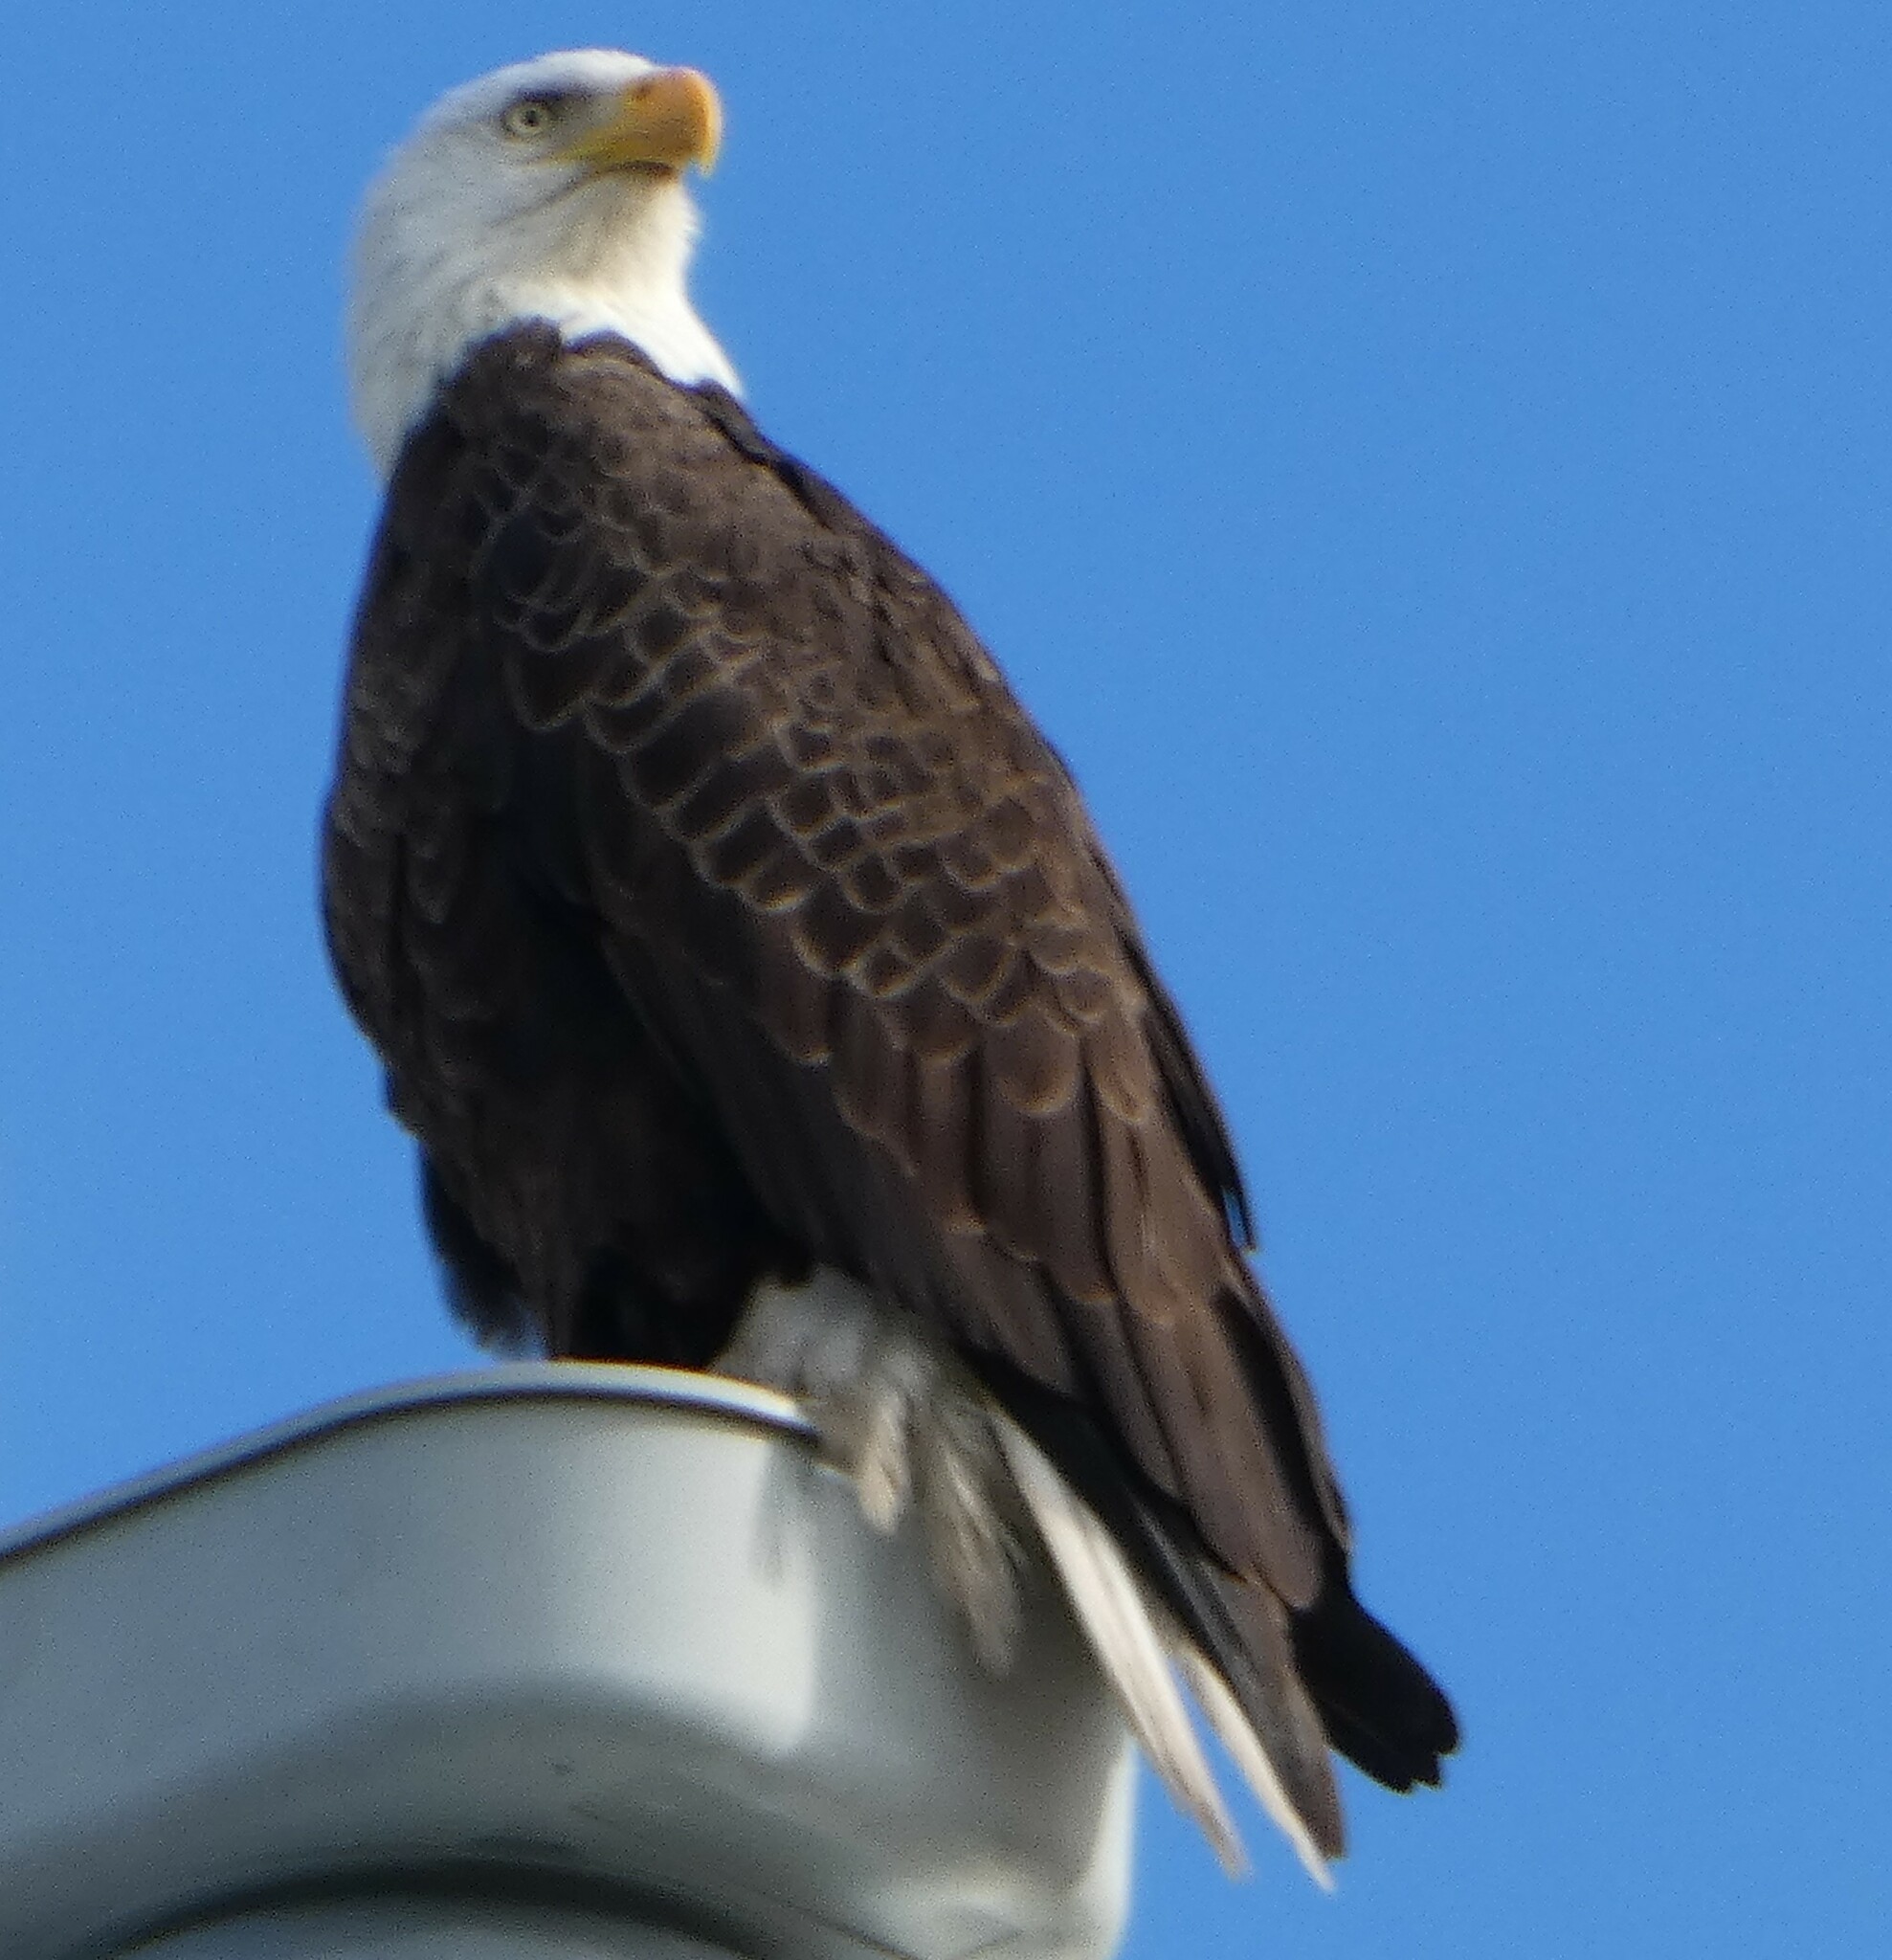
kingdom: Animalia
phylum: Chordata
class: Aves
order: Accipitriformes
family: Accipitridae
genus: Haliaeetus
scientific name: Haliaeetus leucocephalus
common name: Bald eagle
